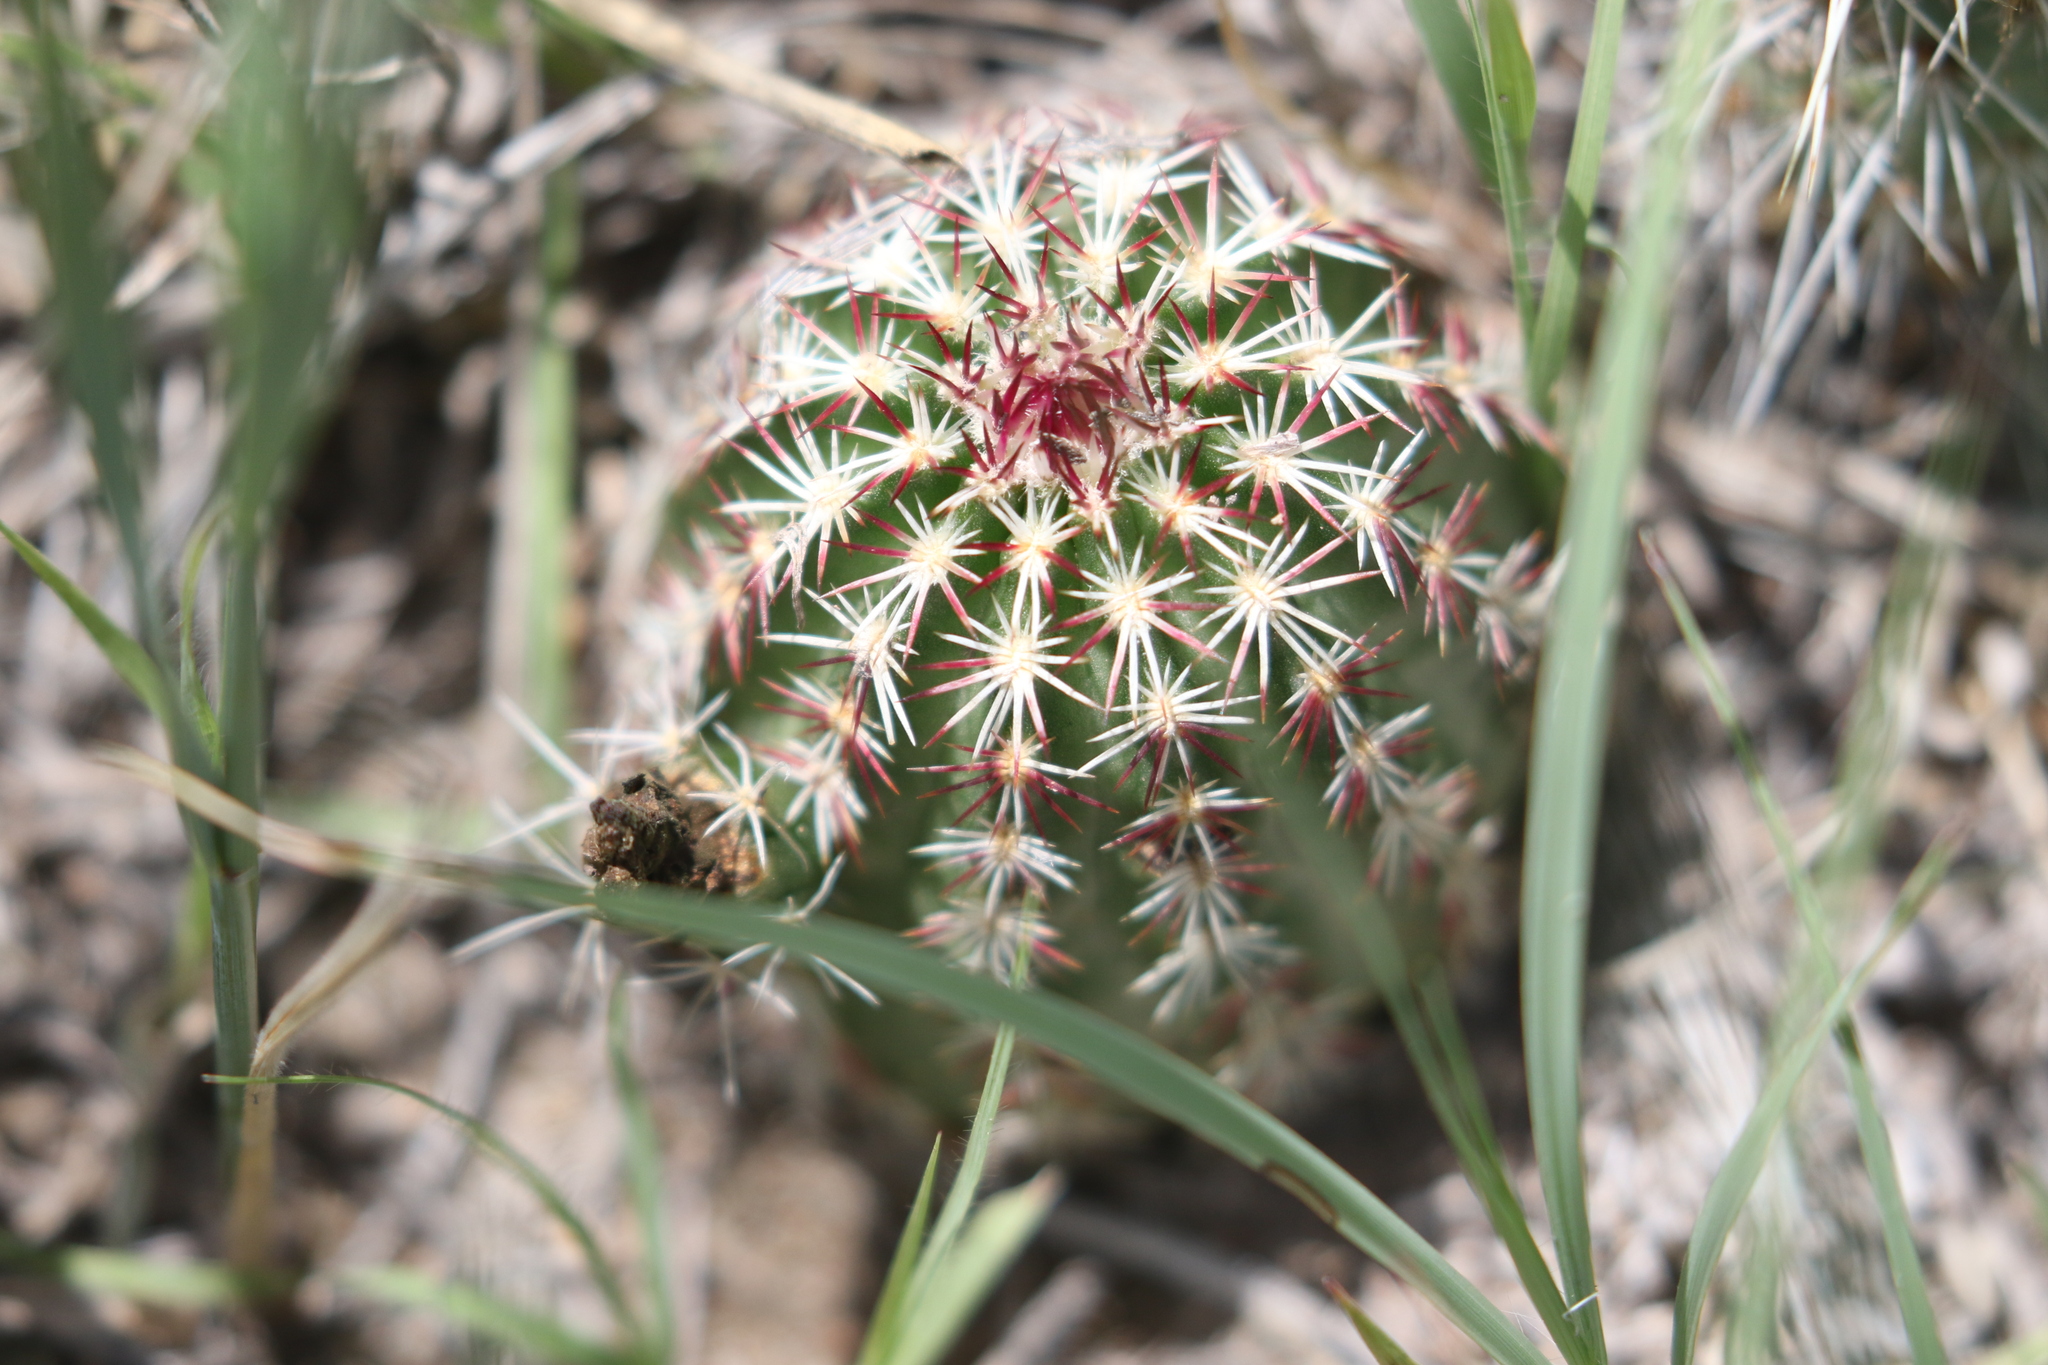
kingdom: Plantae
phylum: Tracheophyta
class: Magnoliopsida
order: Caryophyllales
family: Cactaceae
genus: Echinocereus
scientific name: Echinocereus viridiflorus
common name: Nylon hedgehog cactus
